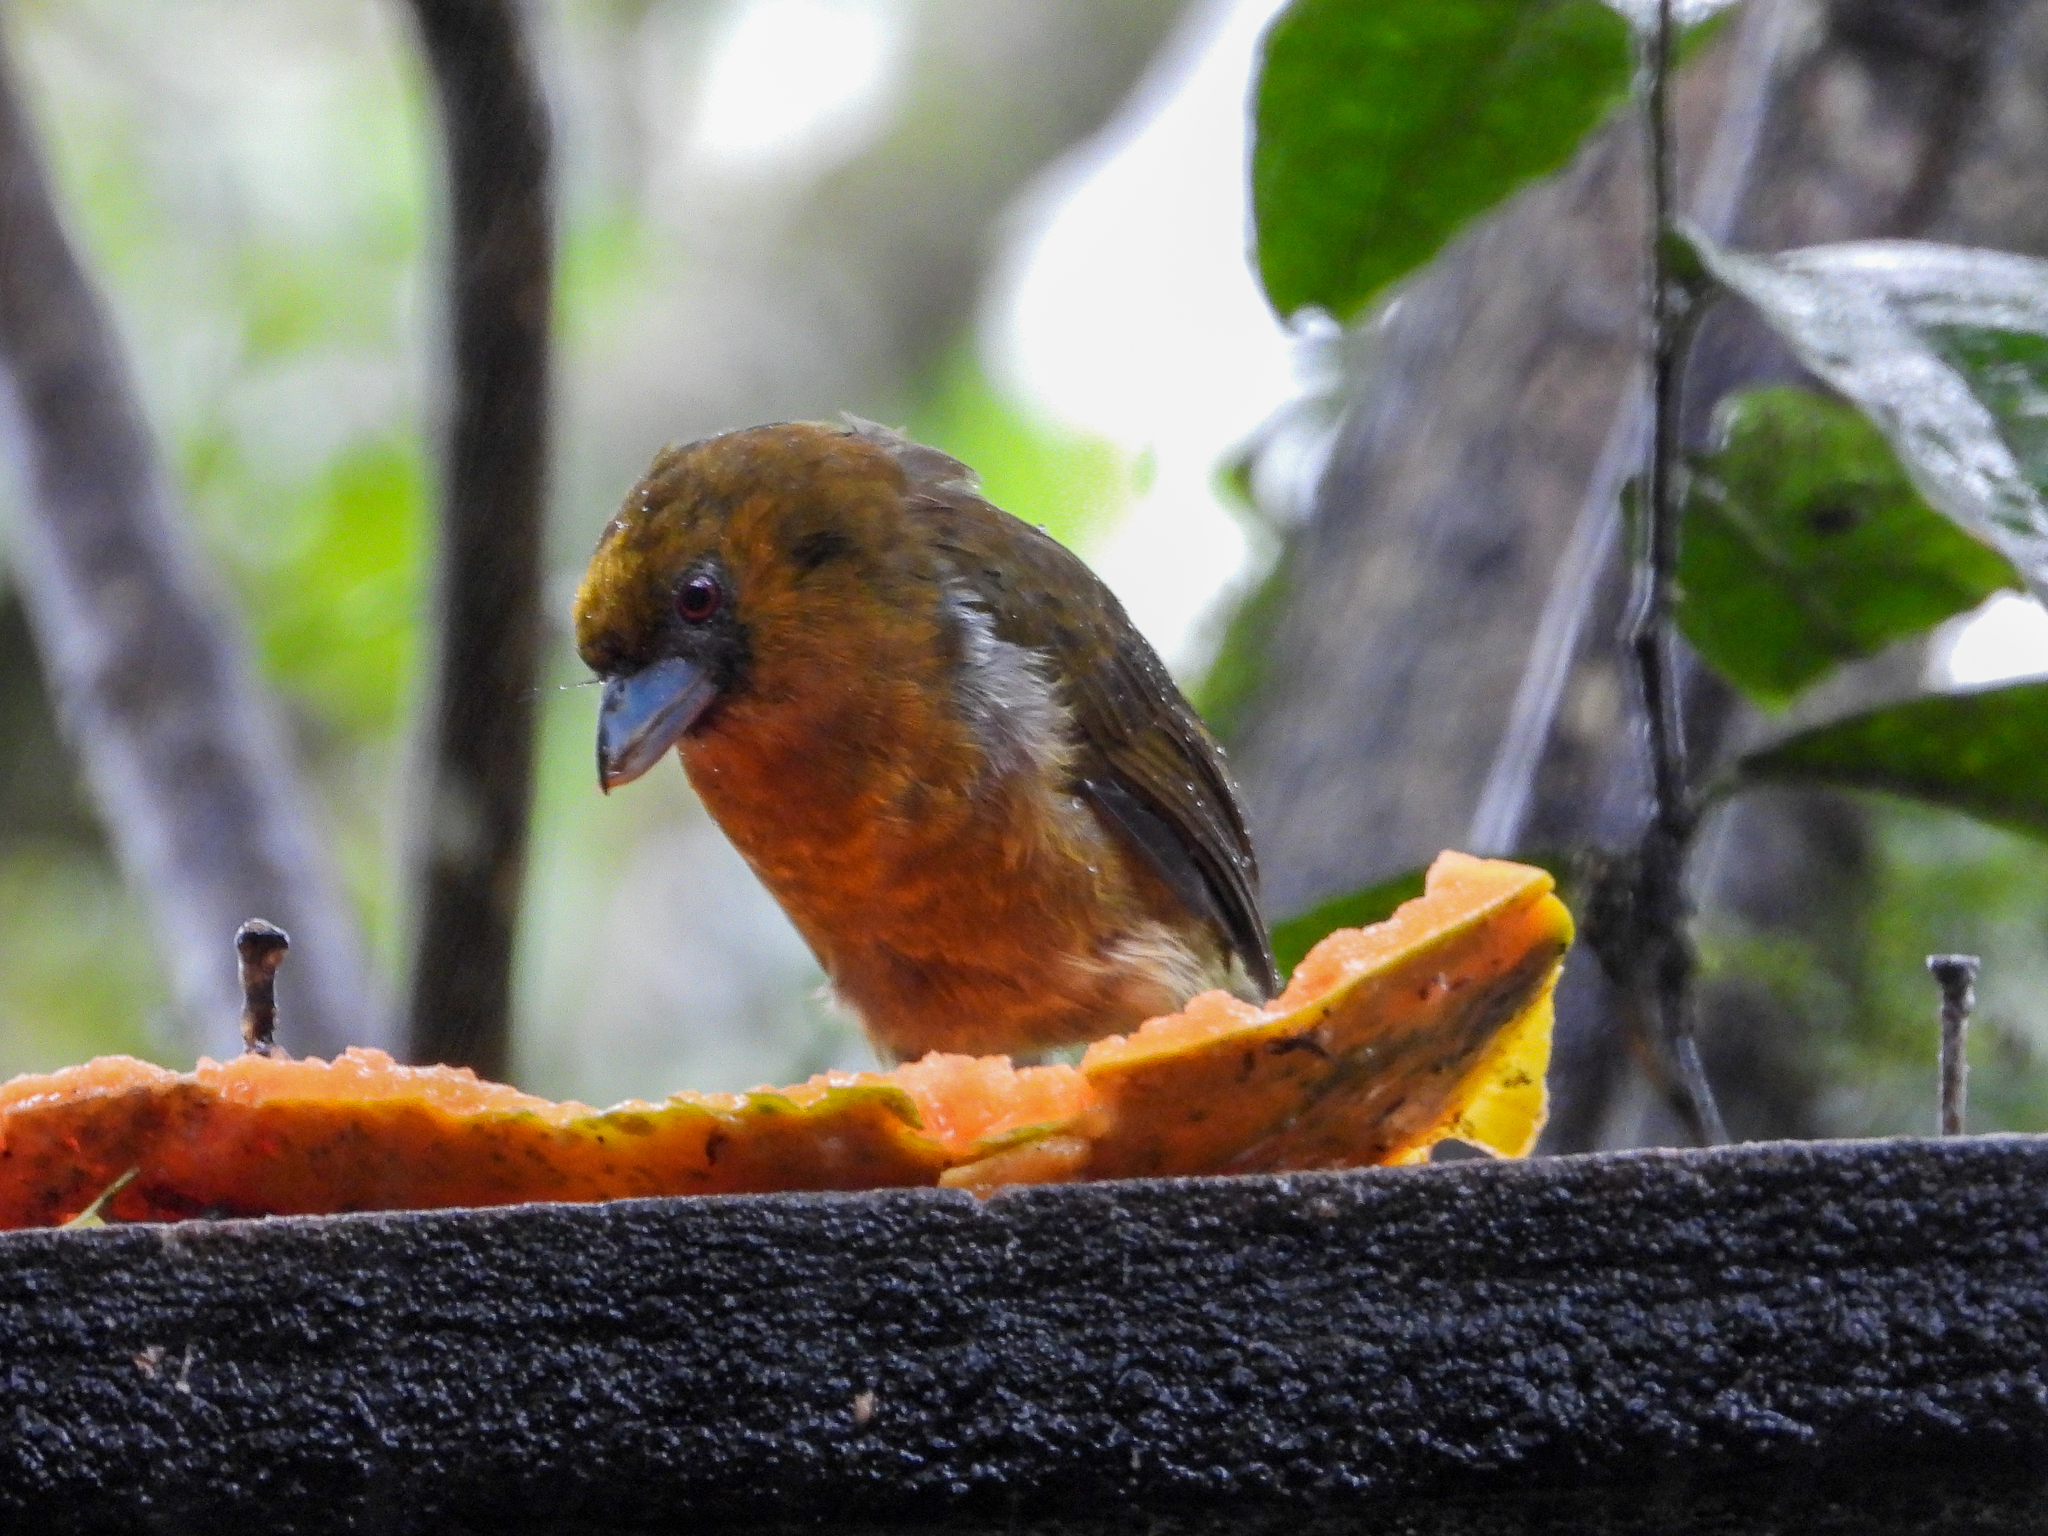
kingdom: Animalia
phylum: Chordata
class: Aves
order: Piciformes
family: Semnornithidae
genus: Semnornis
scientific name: Semnornis frantzii
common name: Prong-billed barbet
